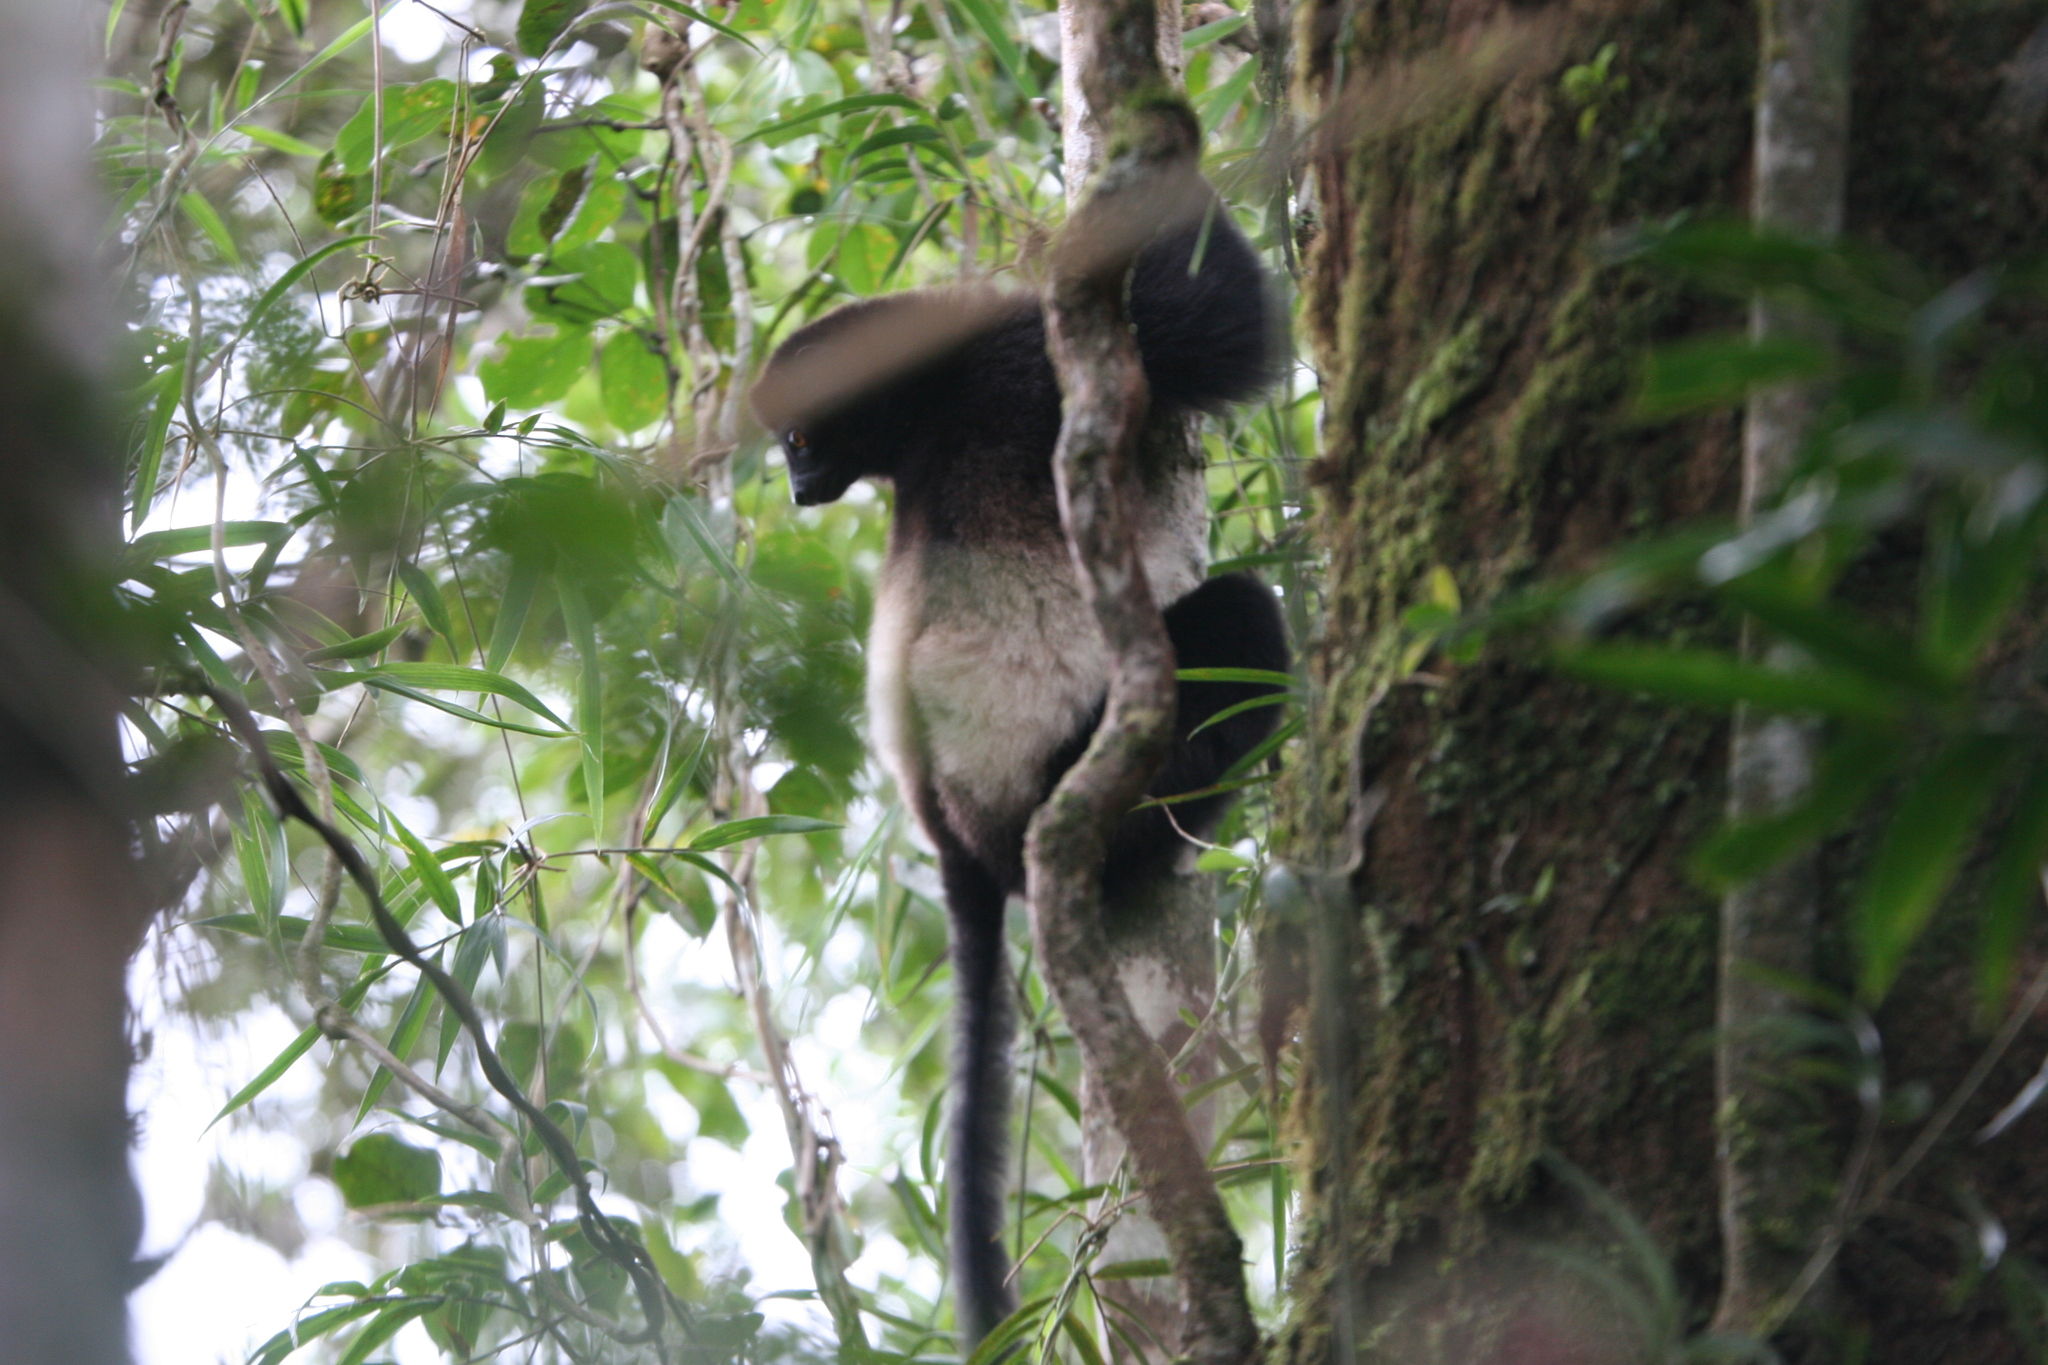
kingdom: Animalia
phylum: Chordata
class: Mammalia
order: Primates
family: Indriidae
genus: Propithecus
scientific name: Propithecus edwardsi
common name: Milne-edwards’s simpona
